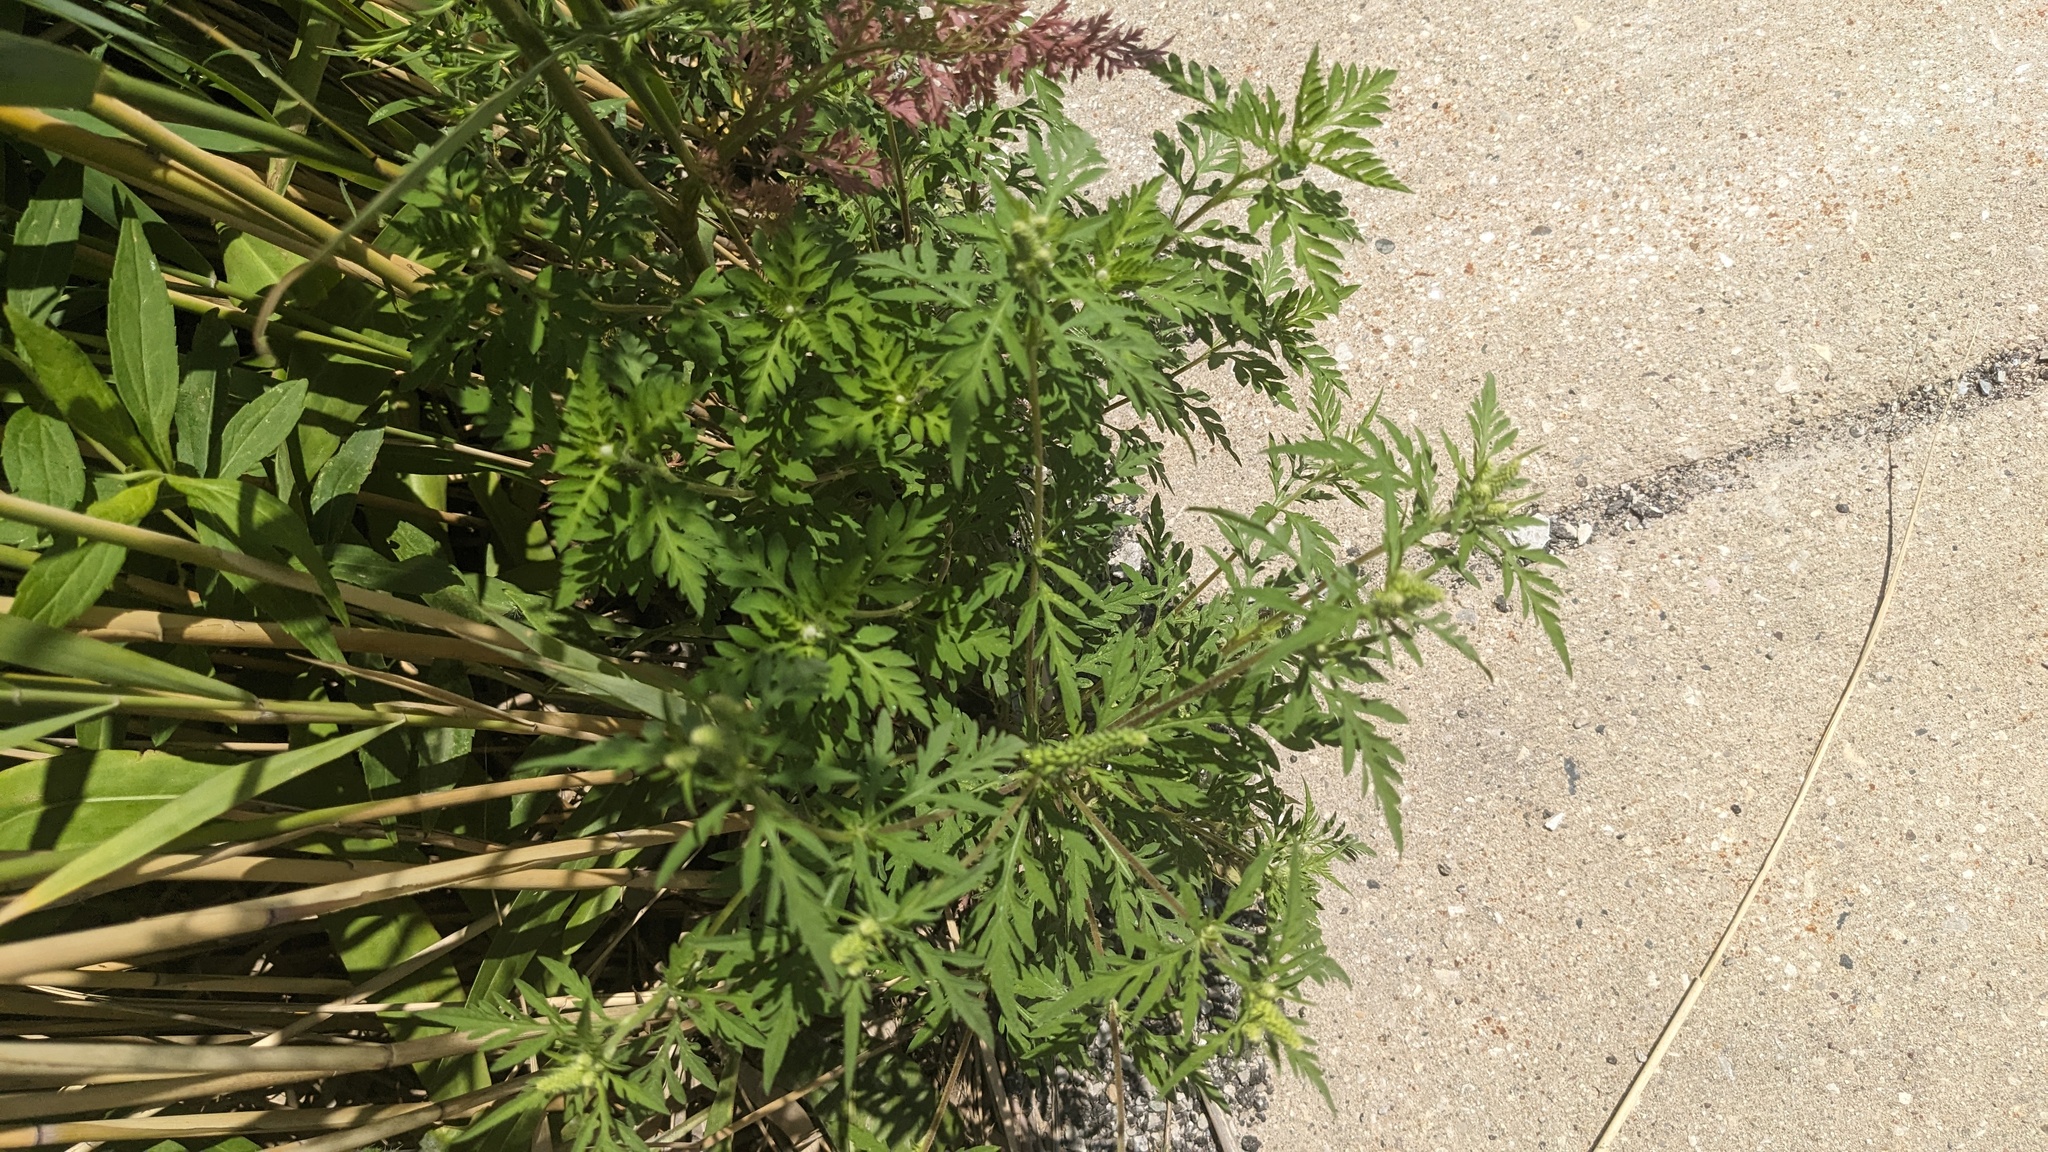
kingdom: Plantae
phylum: Tracheophyta
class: Magnoliopsida
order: Asterales
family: Asteraceae
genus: Ambrosia
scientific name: Ambrosia artemisiifolia
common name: Annual ragweed
